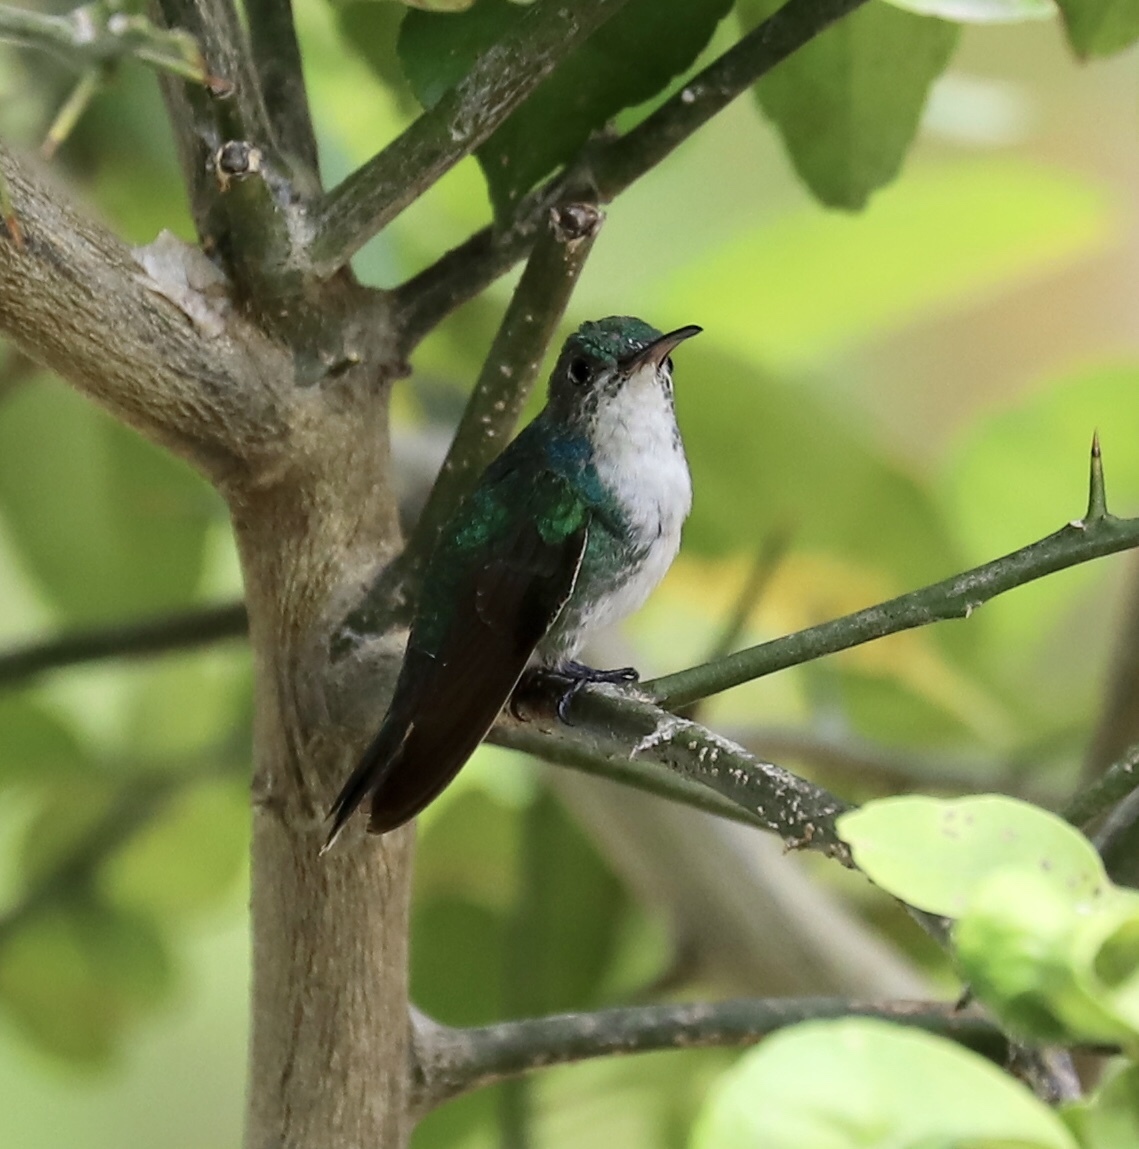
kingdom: Animalia
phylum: Chordata
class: Aves
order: Apodiformes
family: Trochilidae
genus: Chrysuronia
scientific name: Chrysuronia coeruleogularis
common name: Sapphire-throated hummingbird
